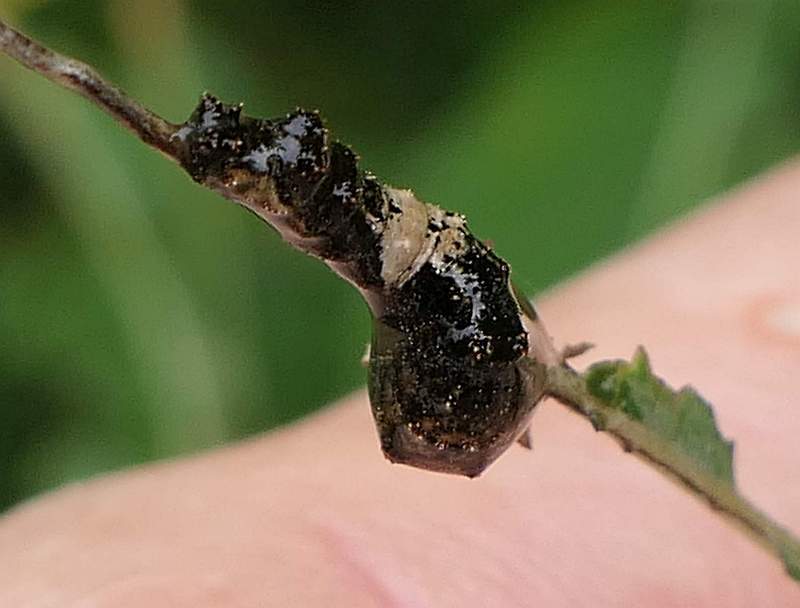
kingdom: Animalia
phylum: Arthropoda
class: Insecta
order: Lepidoptera
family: Nymphalidae
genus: Limenitis
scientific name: Limenitis
